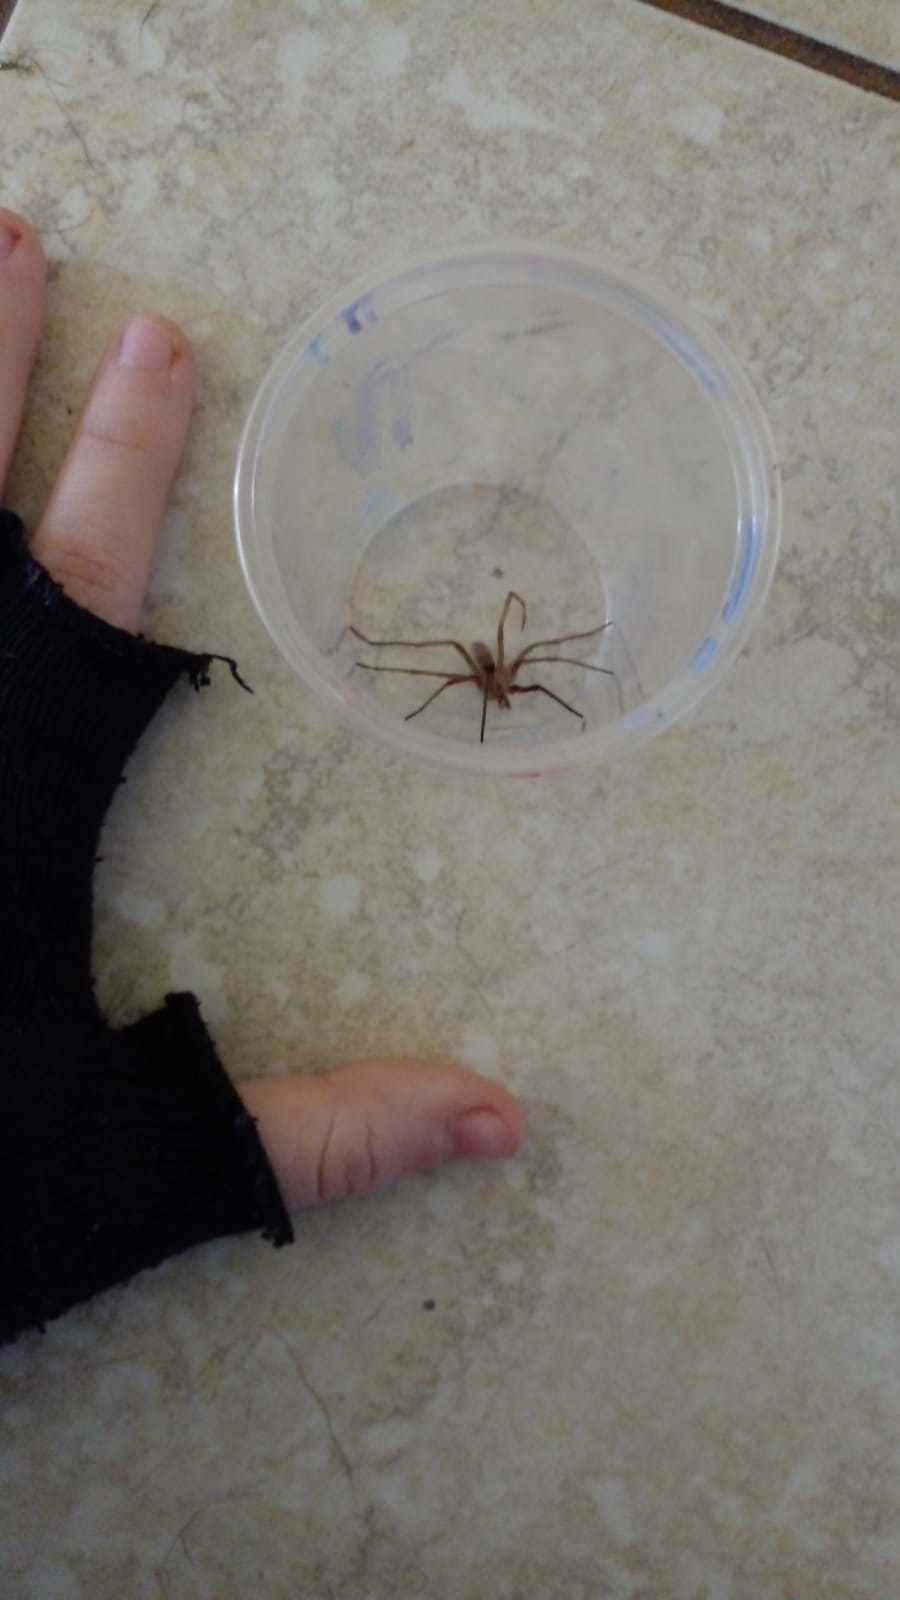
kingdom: Animalia
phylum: Arthropoda
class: Arachnida
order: Araneae
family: Filistatidae
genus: Kukulcania
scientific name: Kukulcania hibernalis
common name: Crevice weaver
